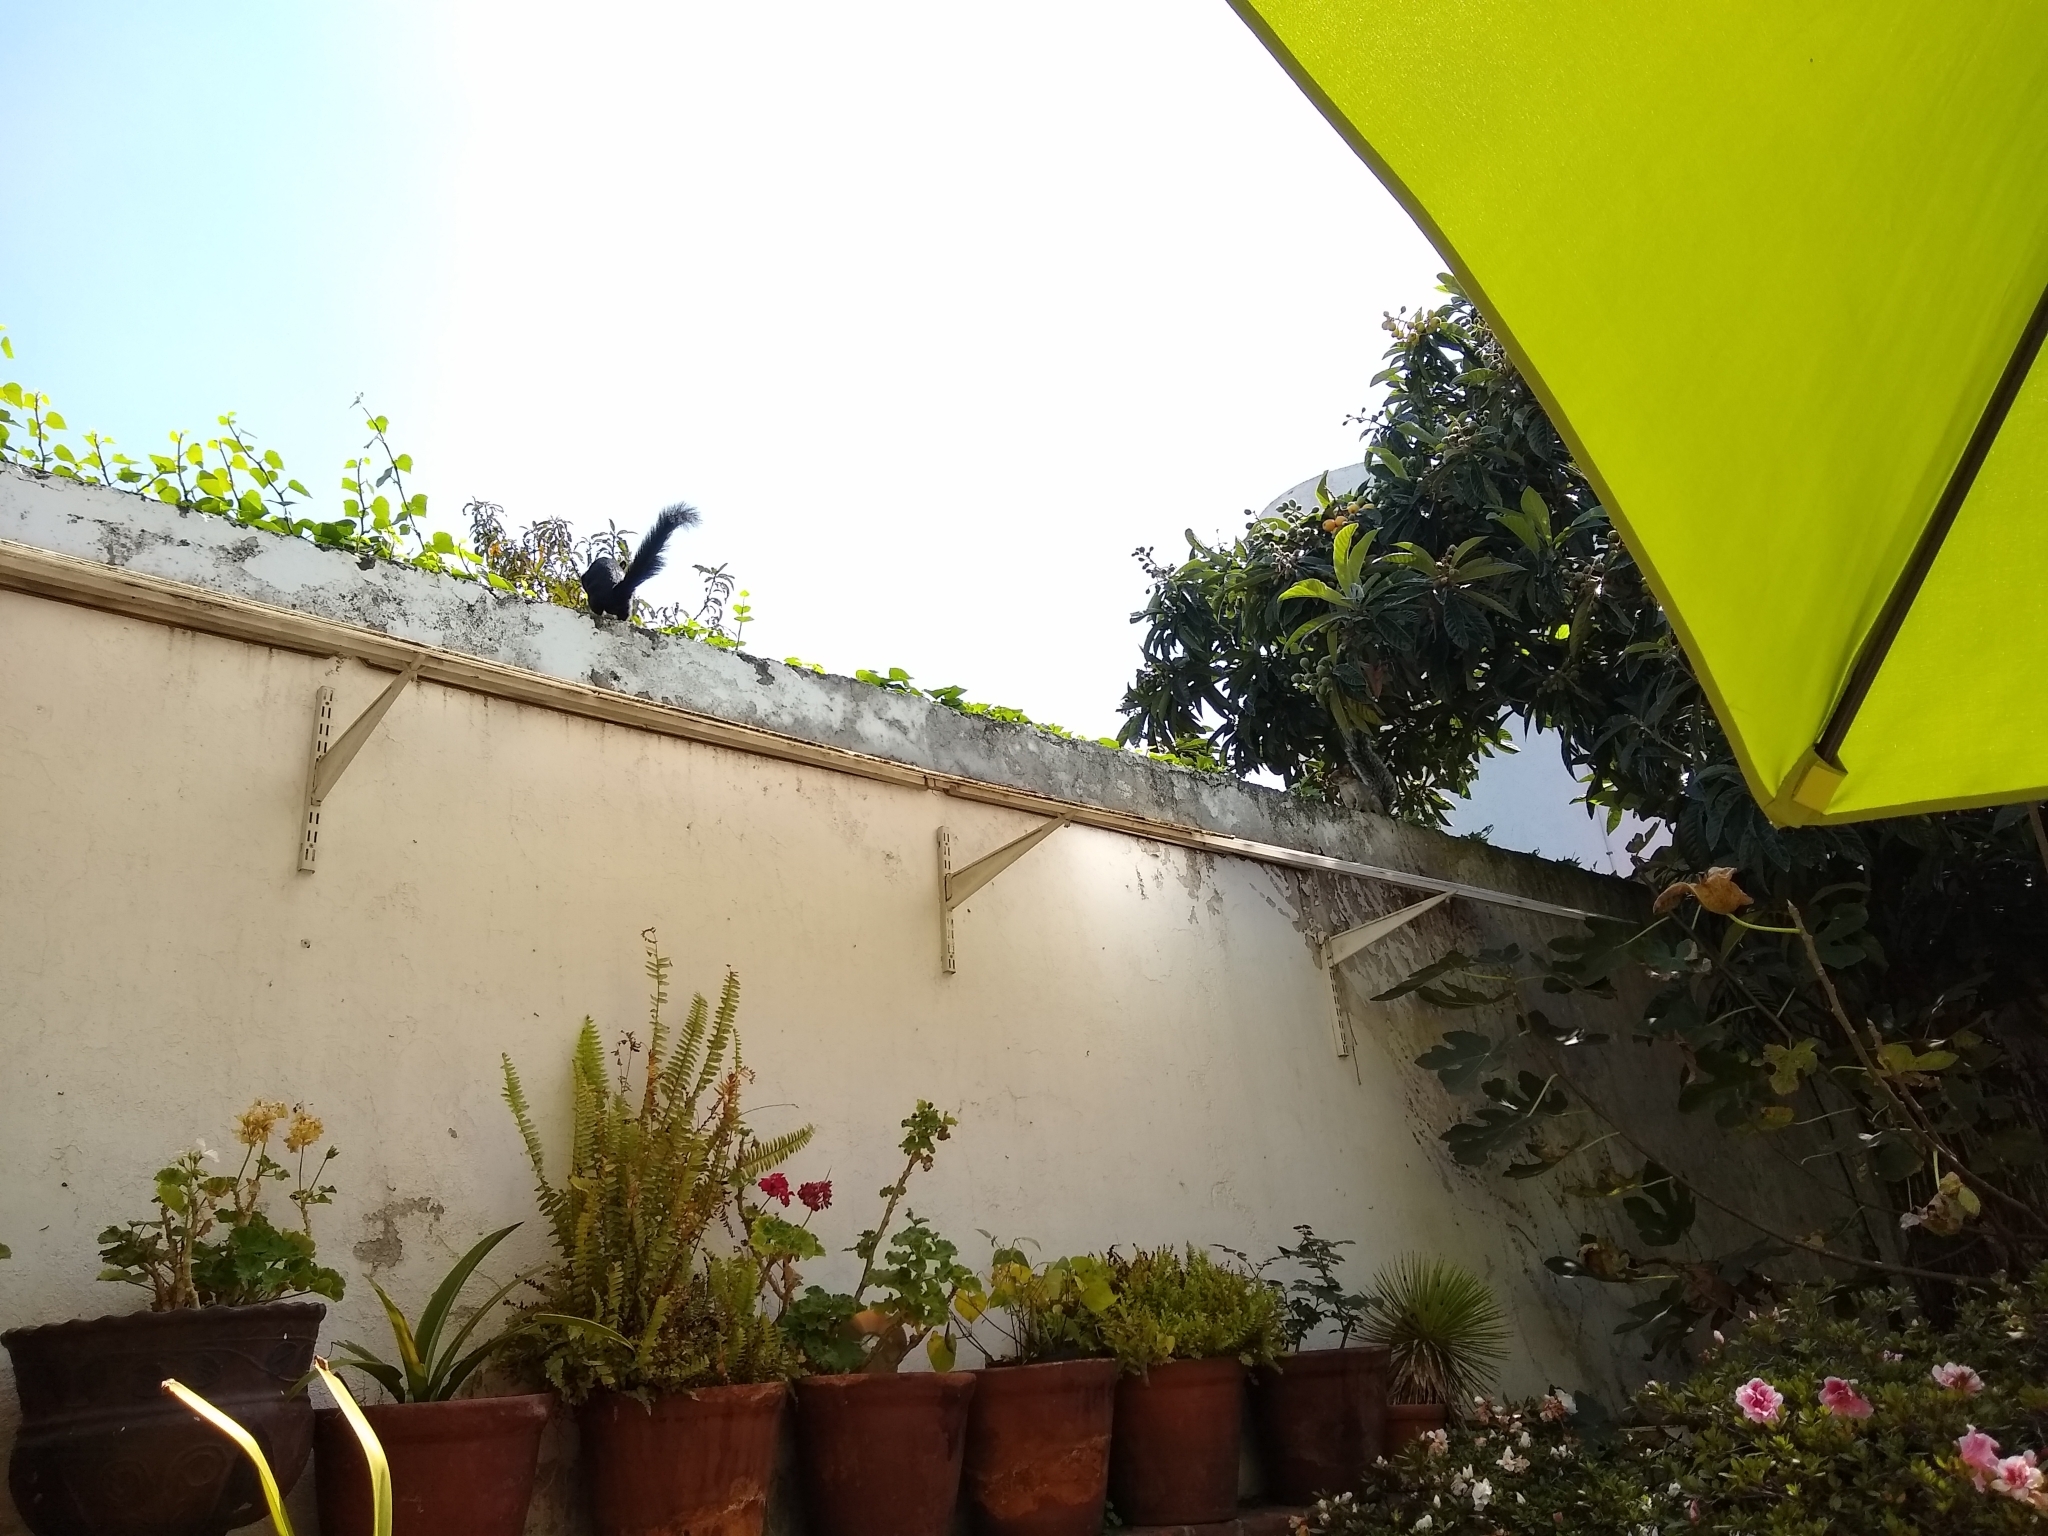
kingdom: Animalia
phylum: Chordata
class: Mammalia
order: Rodentia
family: Sciuridae
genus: Sciurus
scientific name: Sciurus aureogaster
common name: Red-bellied squirrel
